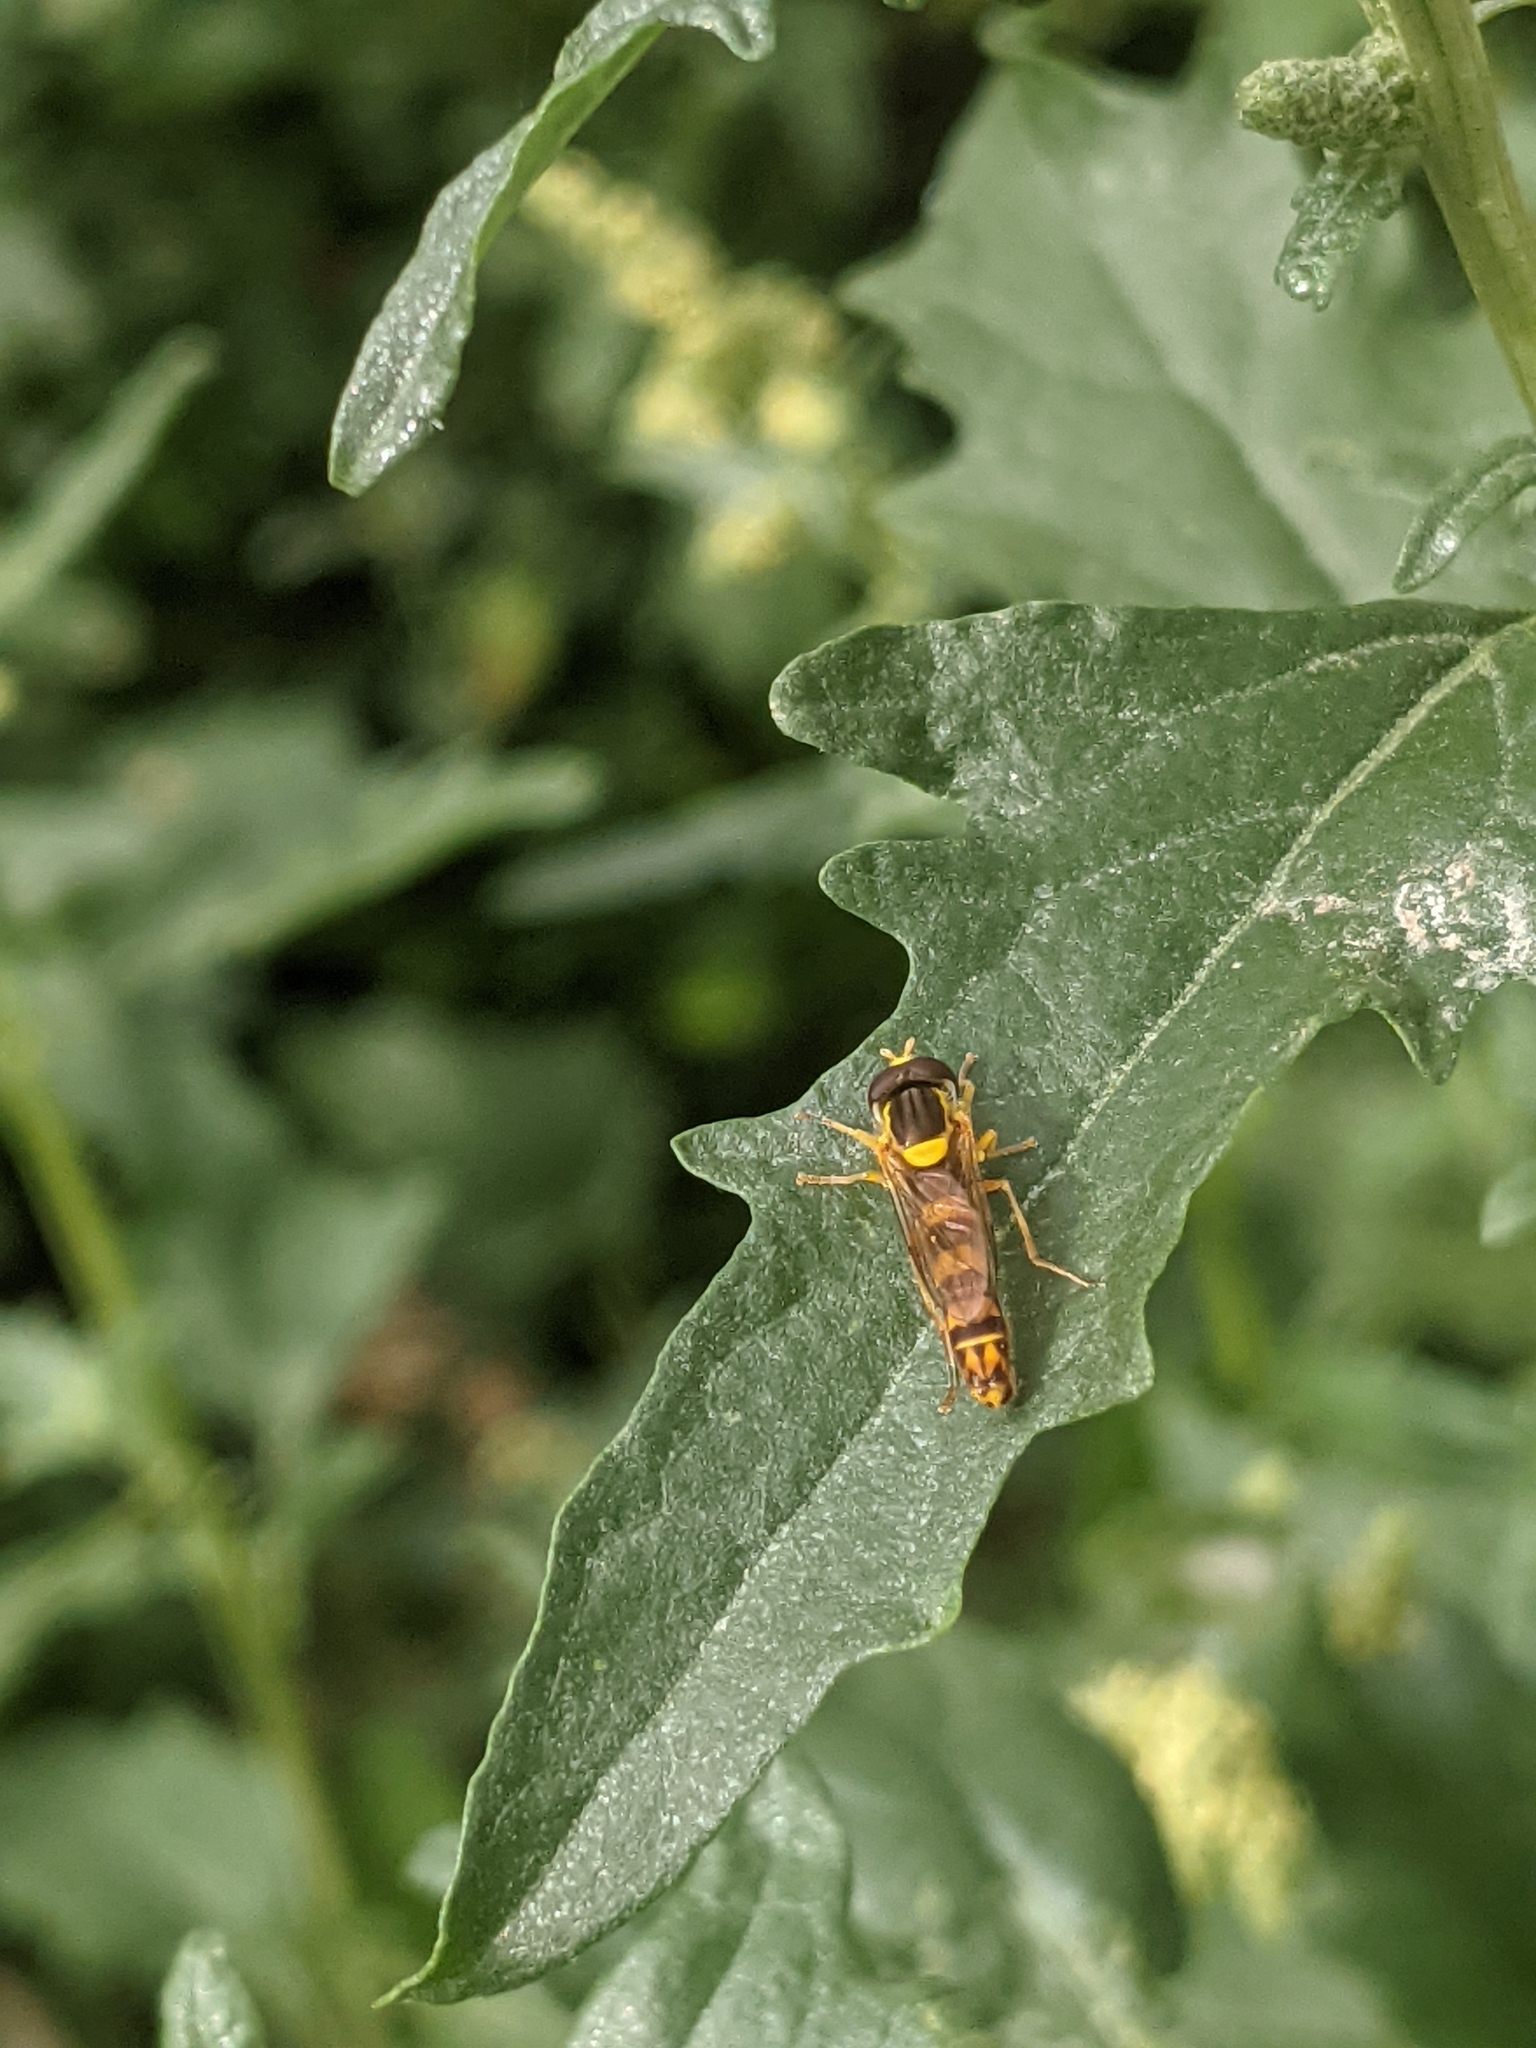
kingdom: Animalia
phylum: Arthropoda
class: Insecta
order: Diptera
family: Syrphidae
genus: Sphaerophoria
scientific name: Sphaerophoria scripta
